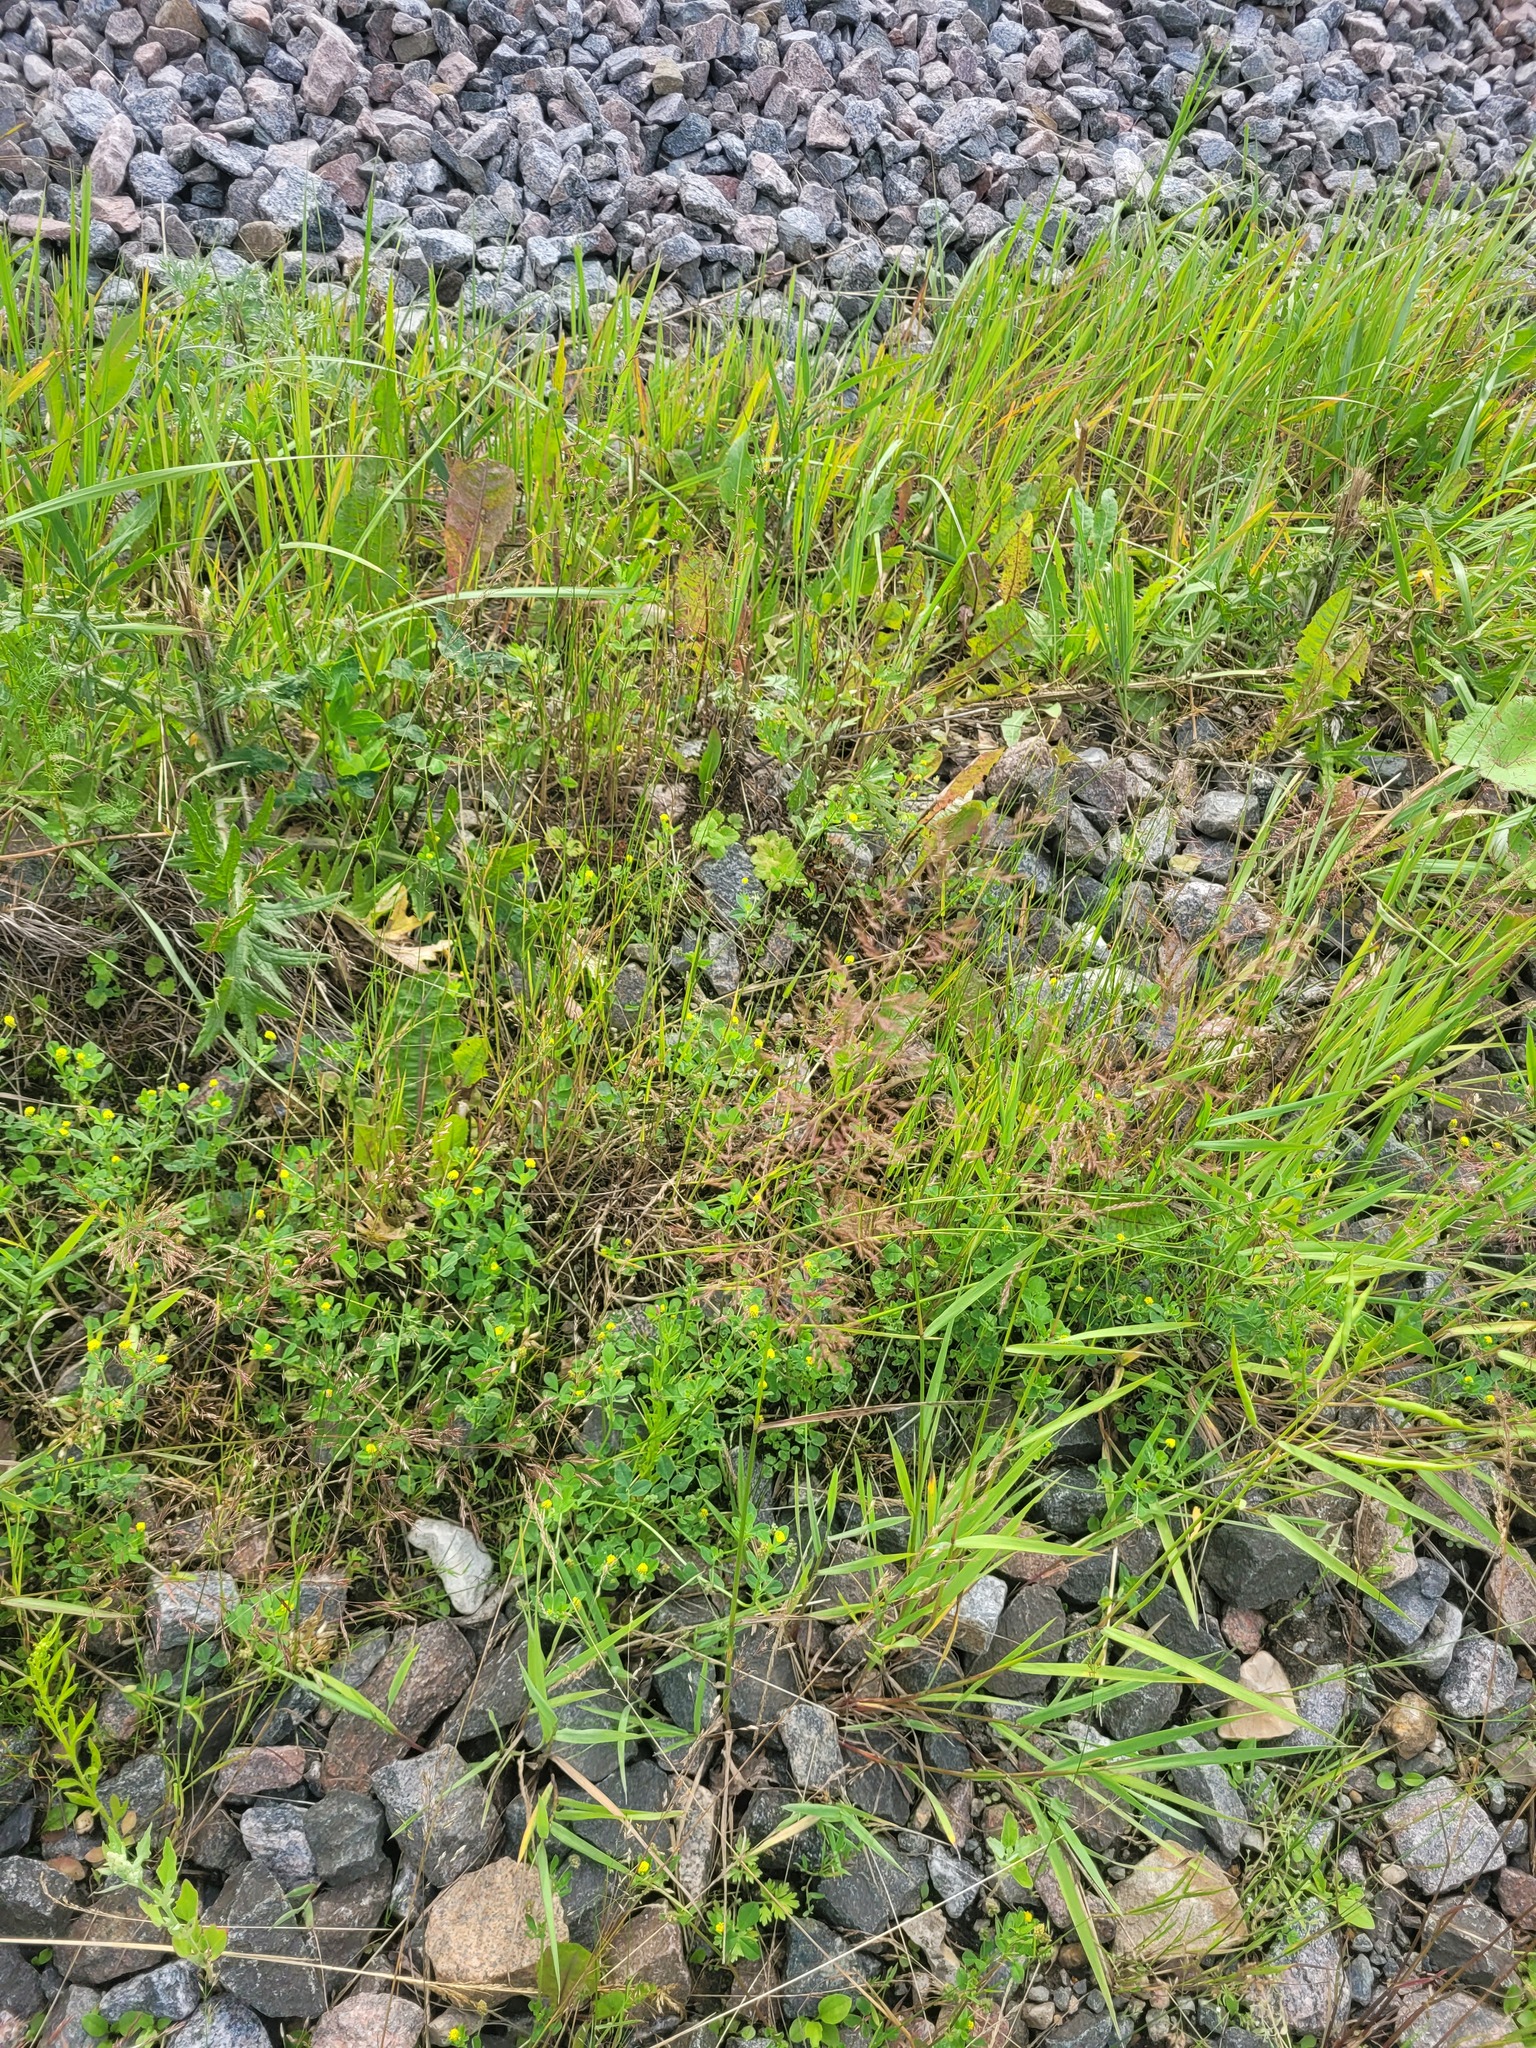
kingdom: Plantae
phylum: Tracheophyta
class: Liliopsida
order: Poales
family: Poaceae
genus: Agrostis
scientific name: Agrostis gigantea
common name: Black bent
